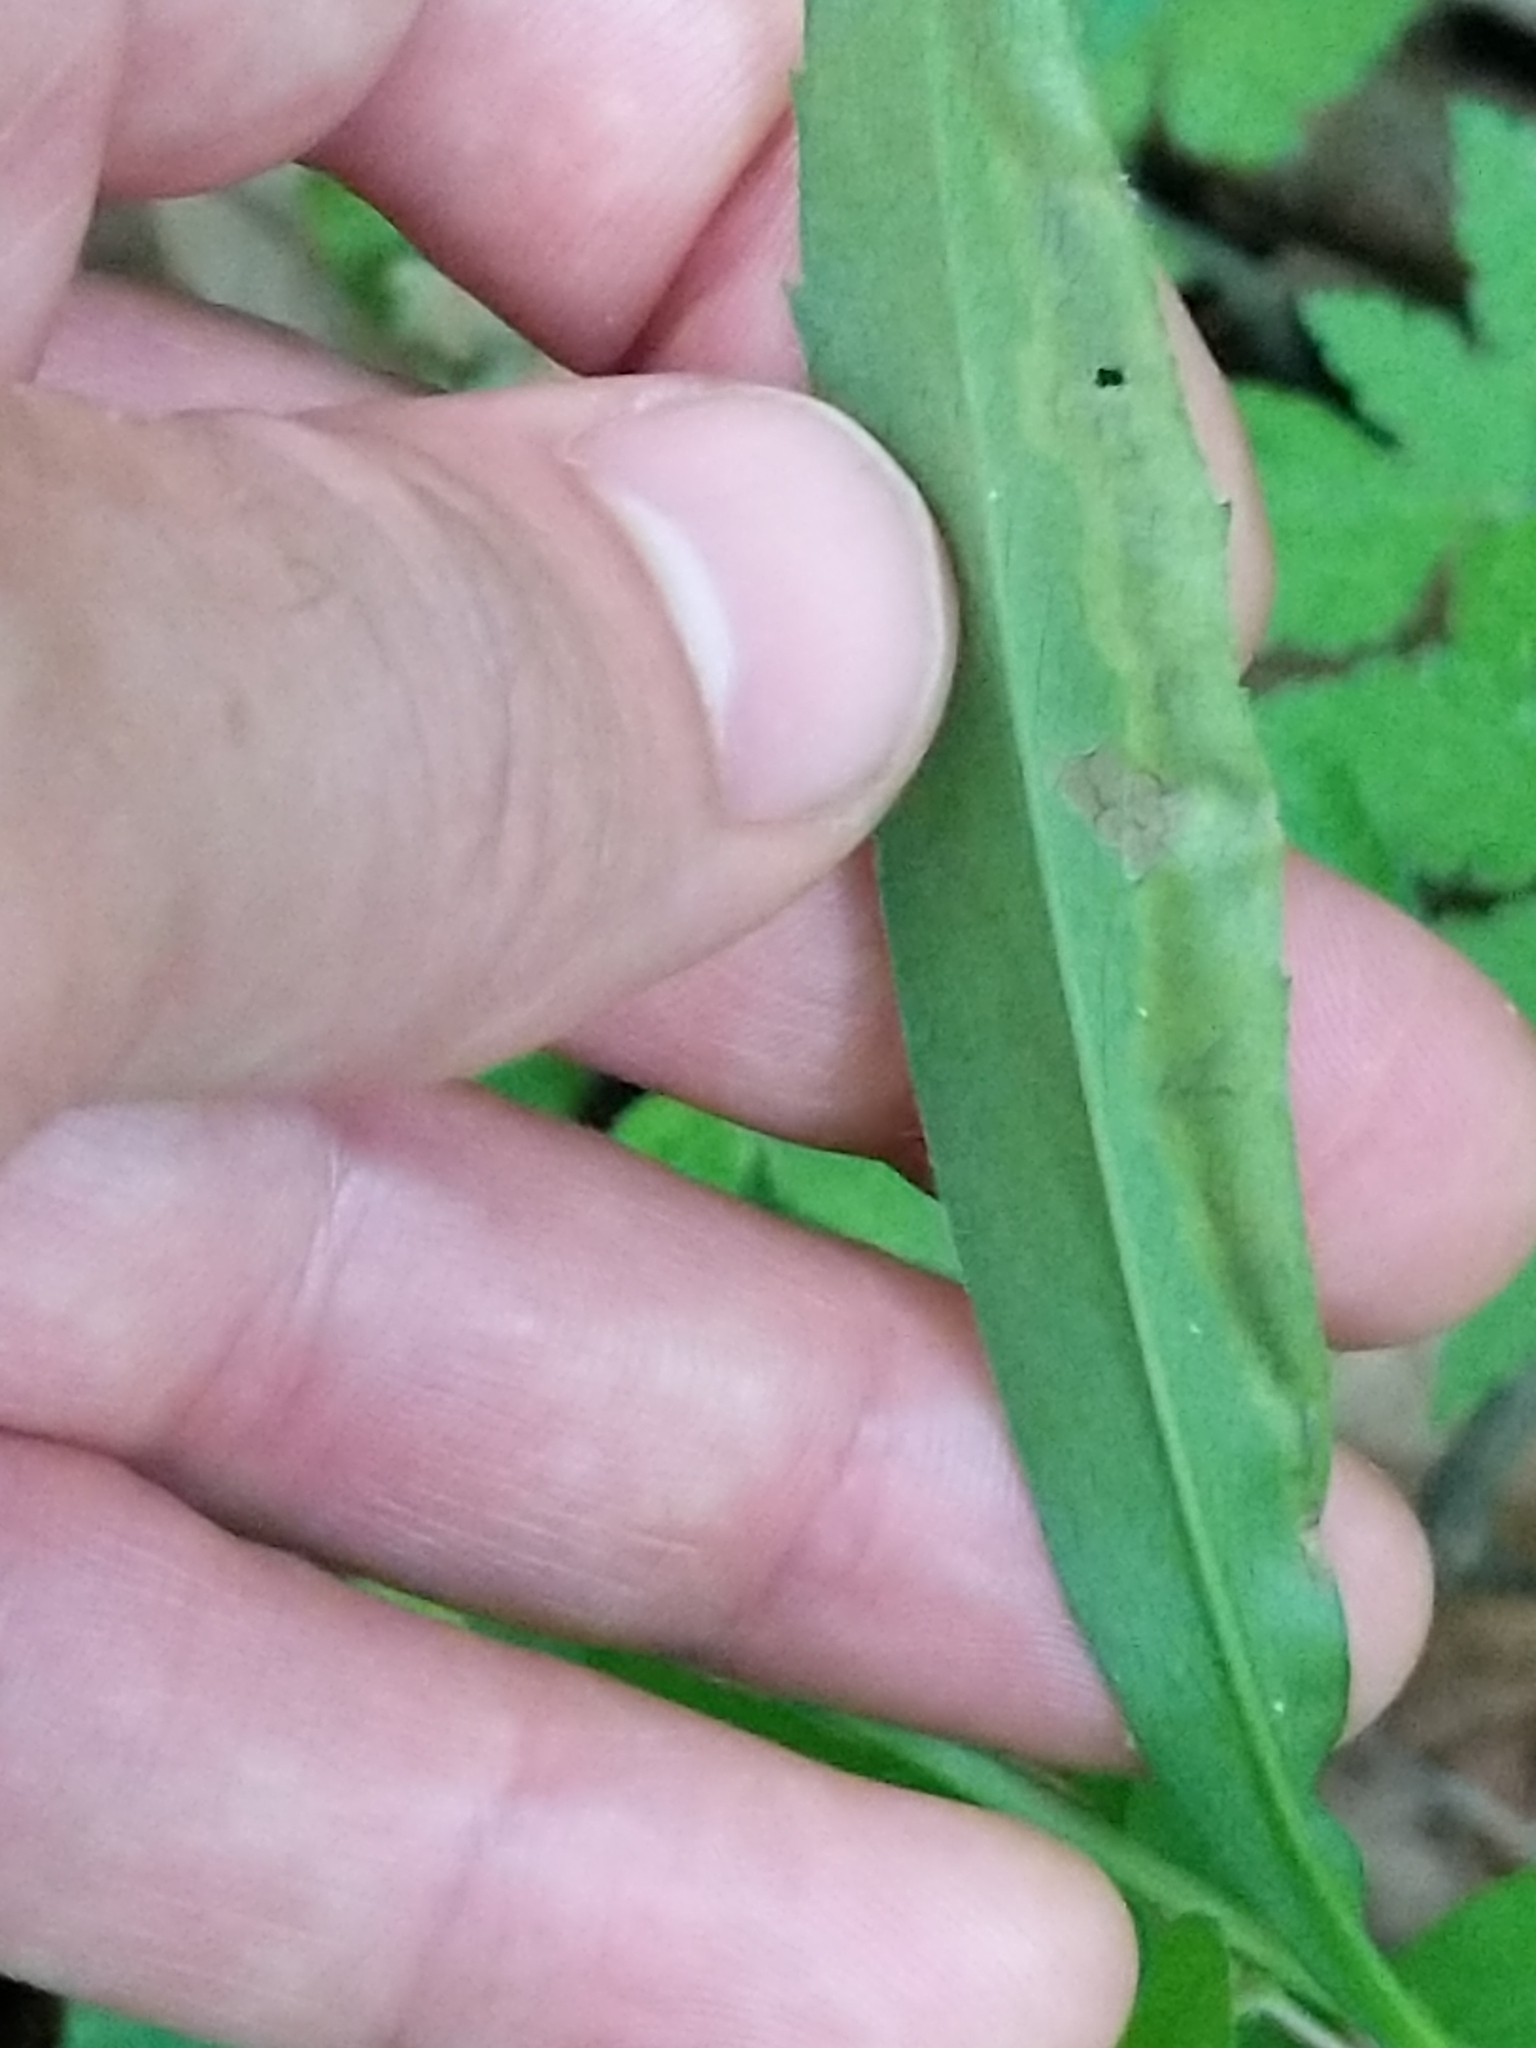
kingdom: Animalia
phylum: Arthropoda
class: Insecta
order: Diptera
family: Agromyzidae
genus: Nemorimyza
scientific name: Nemorimyza posticata
